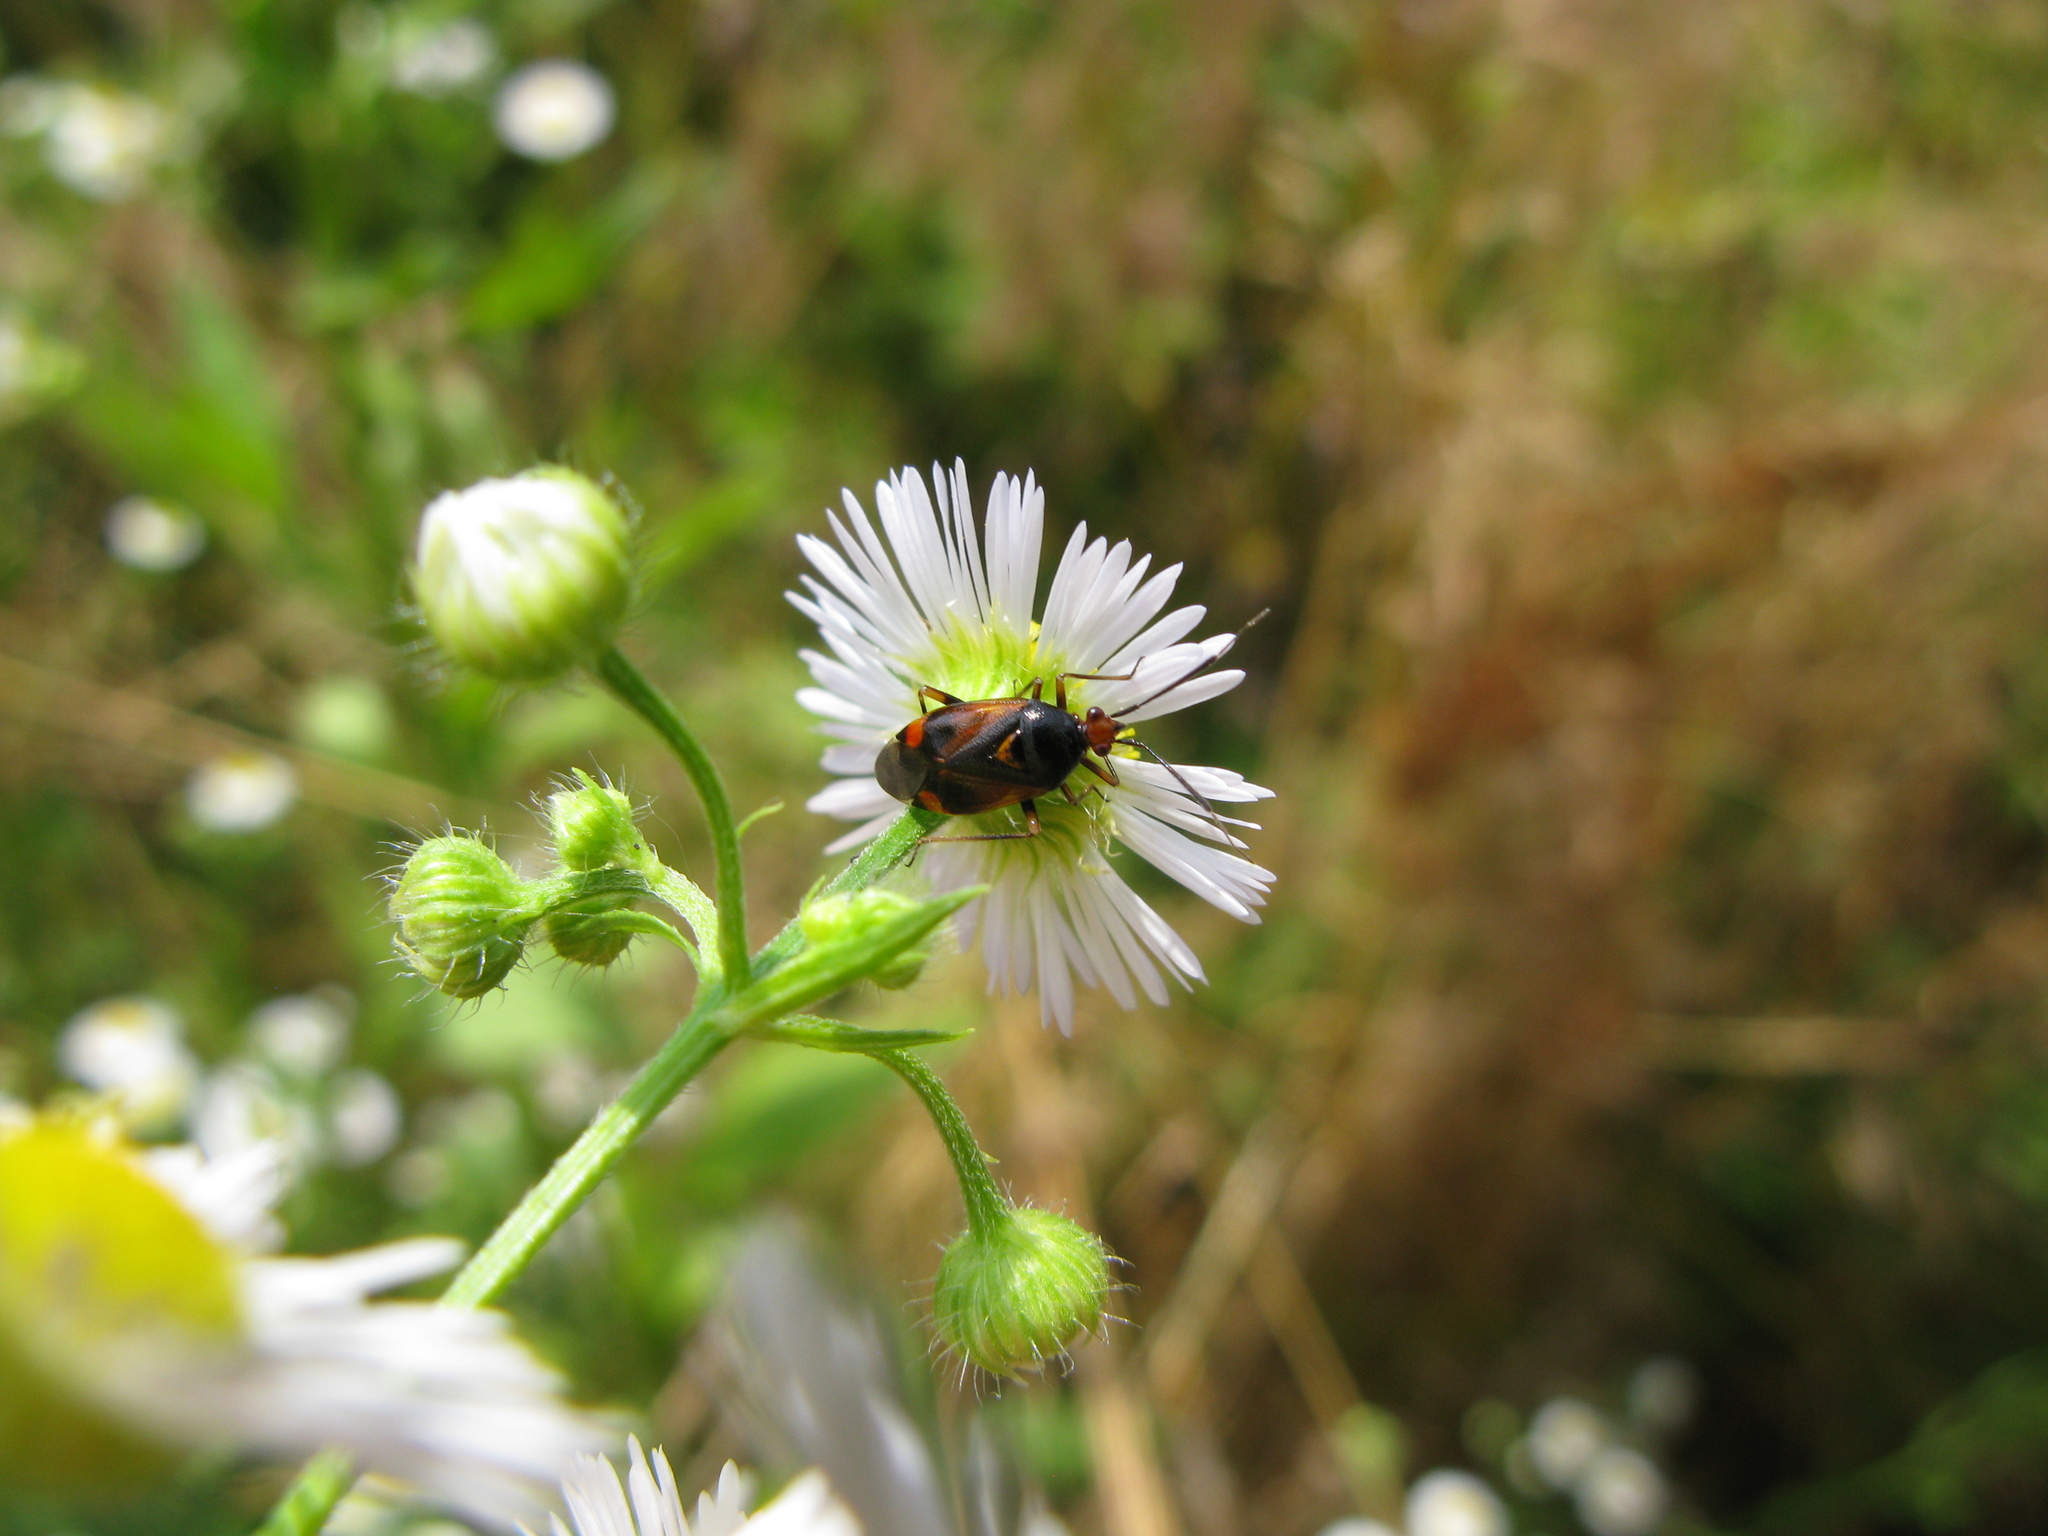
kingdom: Animalia
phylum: Arthropoda
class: Insecta
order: Hemiptera
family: Miridae
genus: Deraeocoris
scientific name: Deraeocoris ruber
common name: Plant bug
